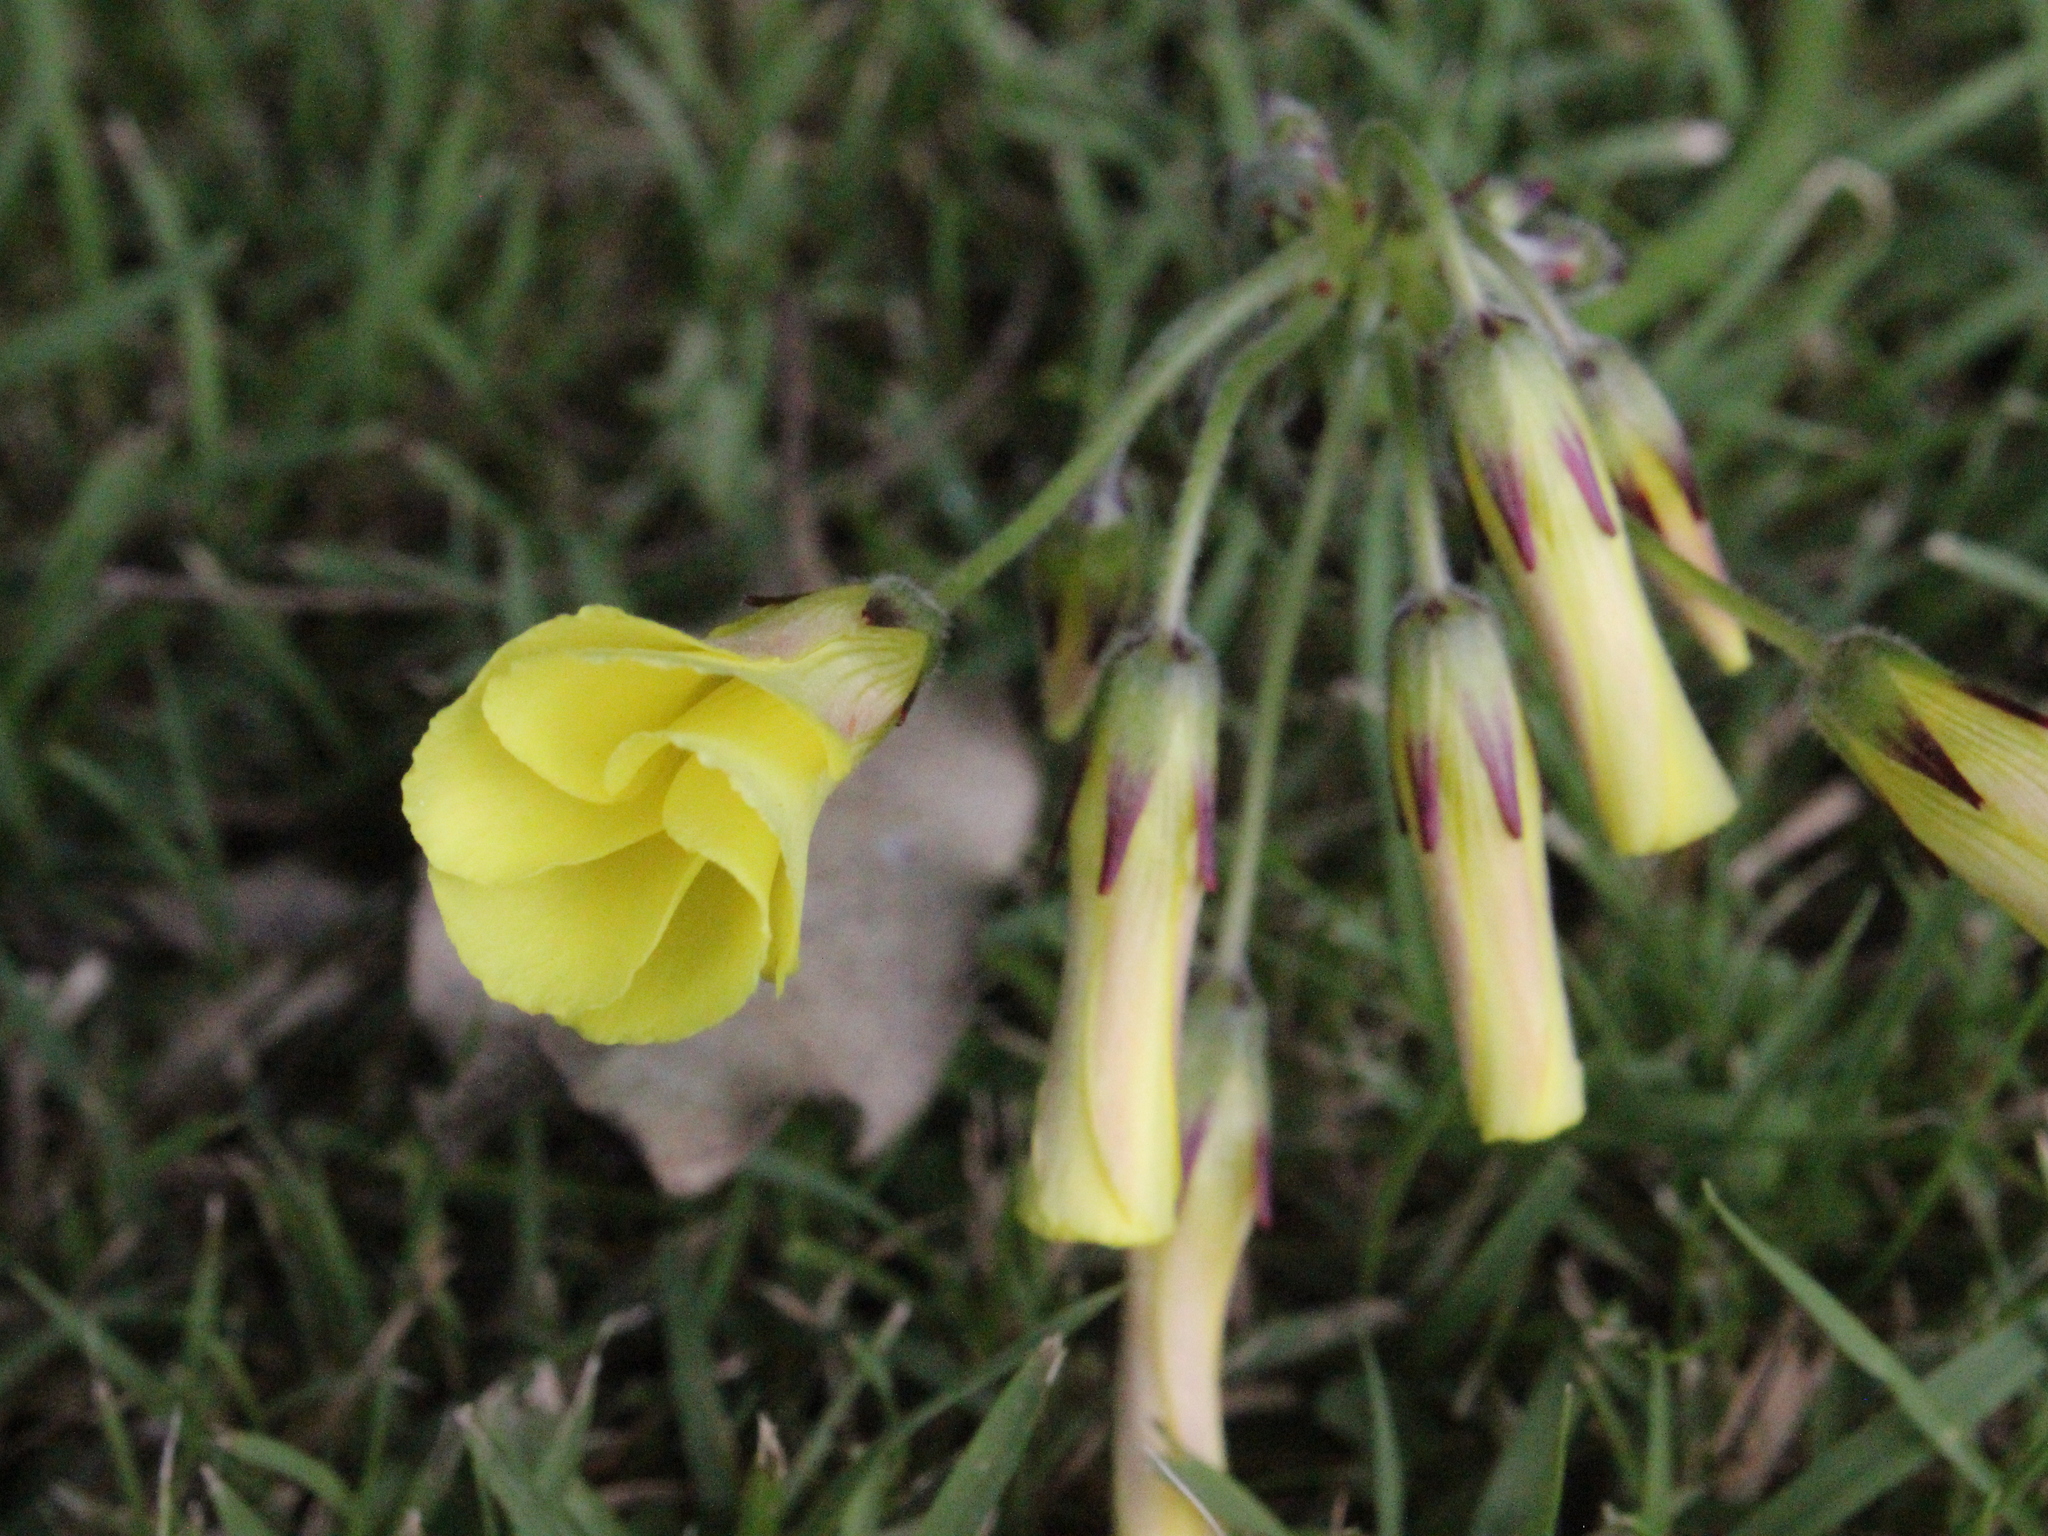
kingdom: Plantae
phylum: Tracheophyta
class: Magnoliopsida
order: Oxalidales
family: Oxalidaceae
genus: Oxalis
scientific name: Oxalis pes-caprae
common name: Bermuda-buttercup
